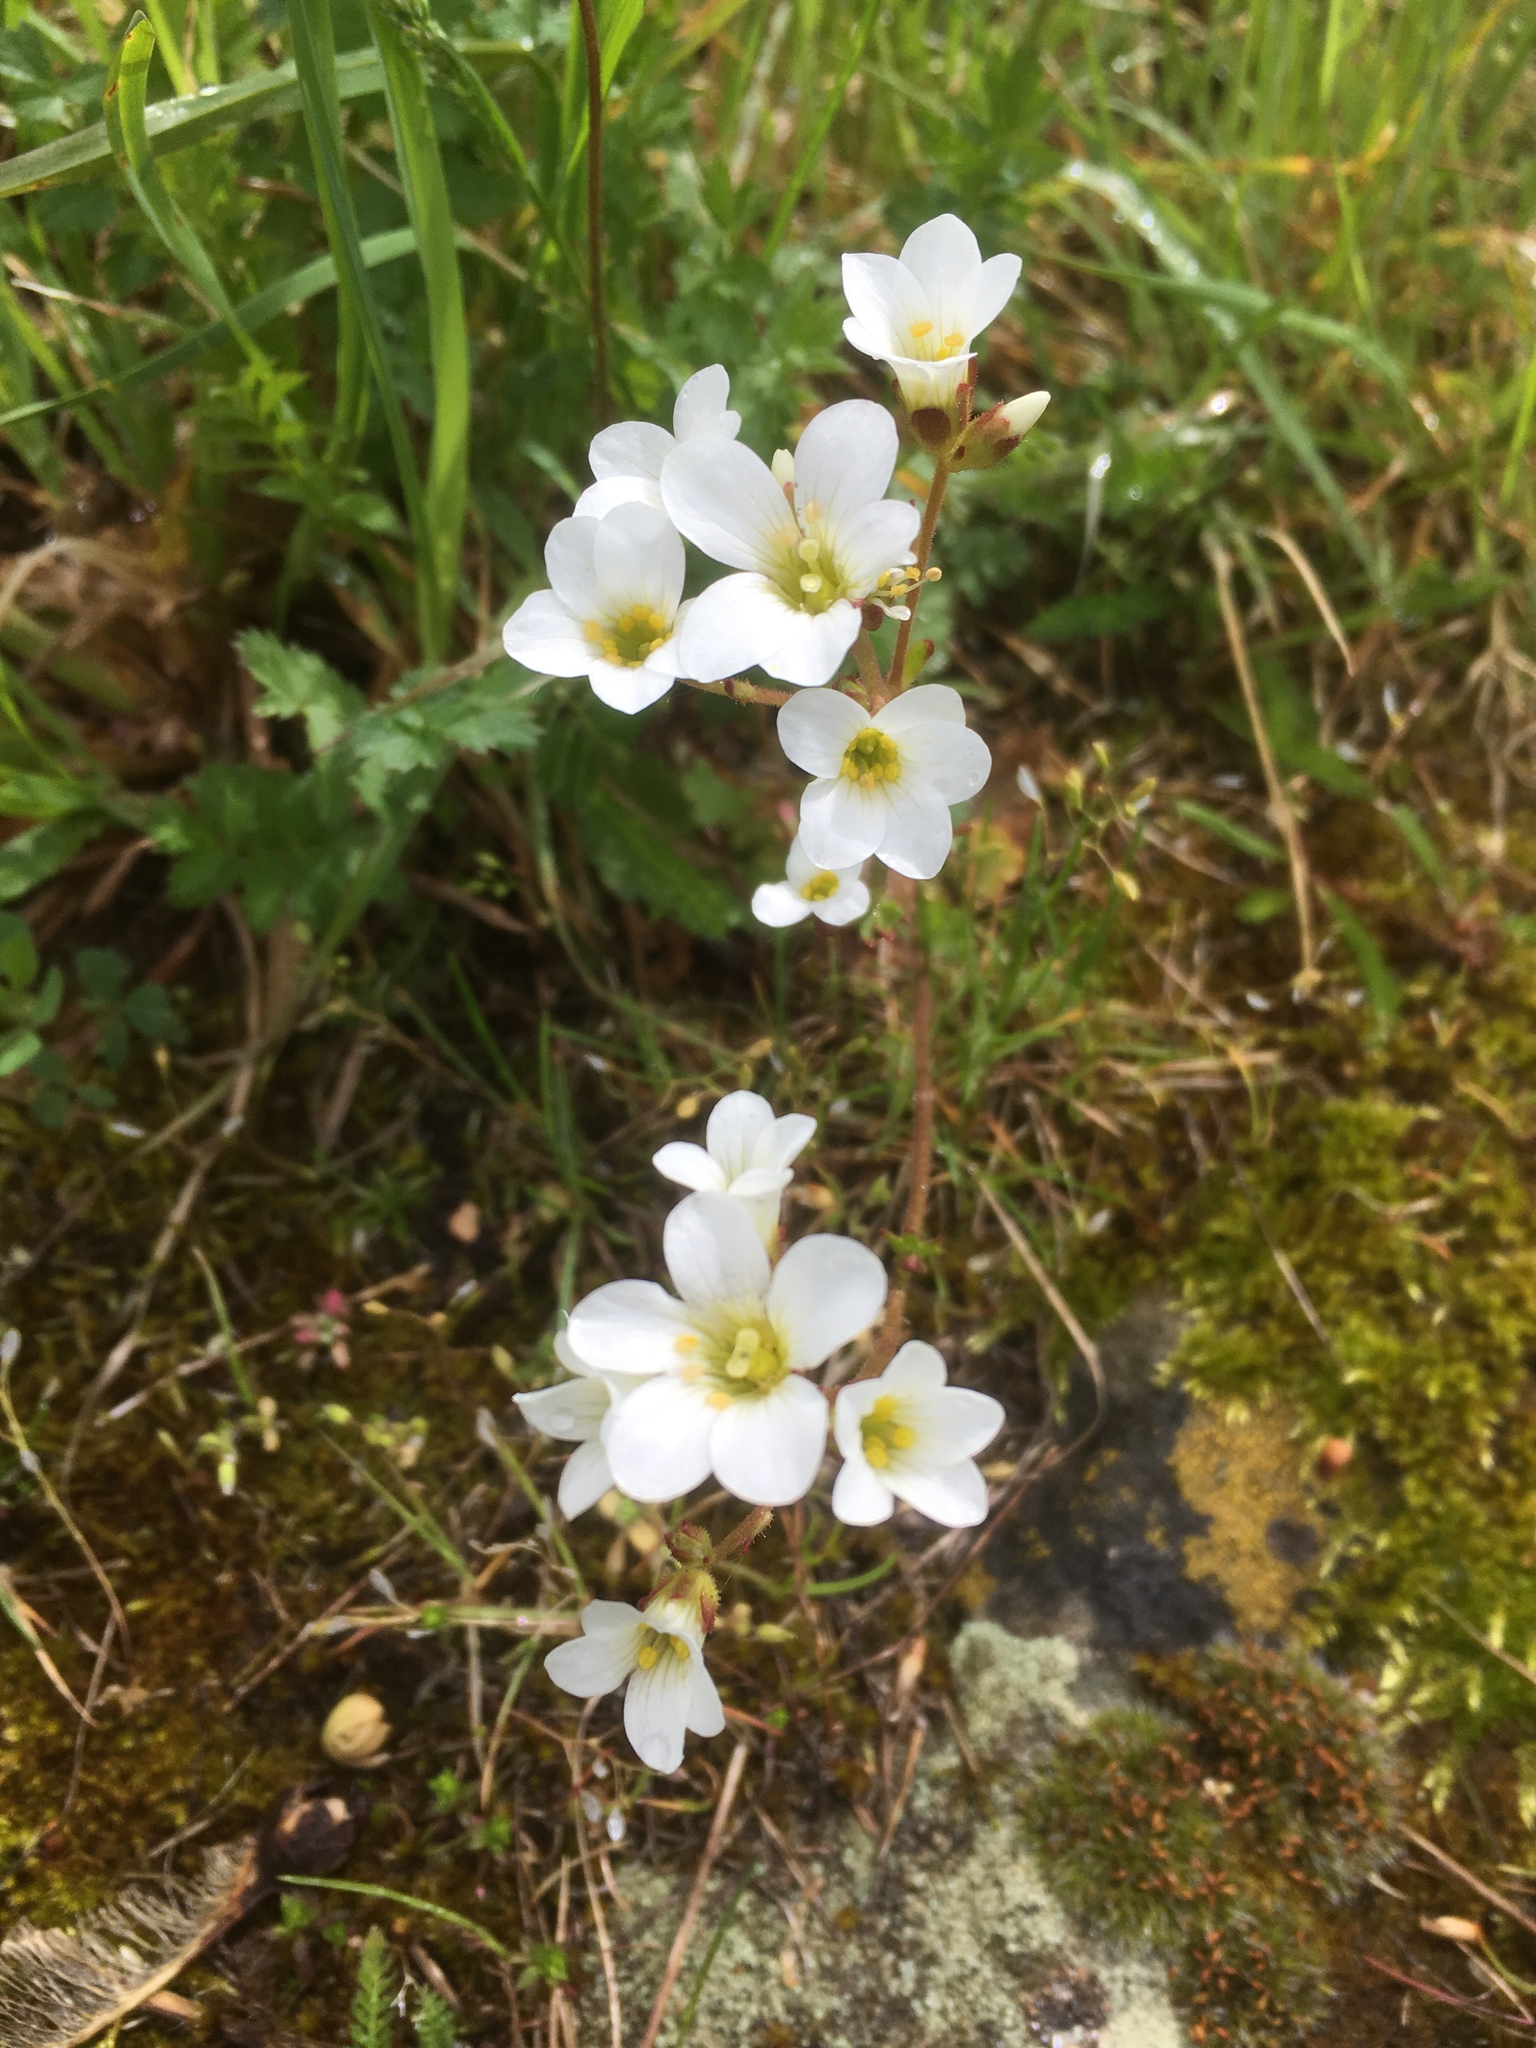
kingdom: Plantae
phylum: Tracheophyta
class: Magnoliopsida
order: Saxifragales
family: Saxifragaceae
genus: Saxifraga
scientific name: Saxifraga granulata
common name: Meadow saxifrage
